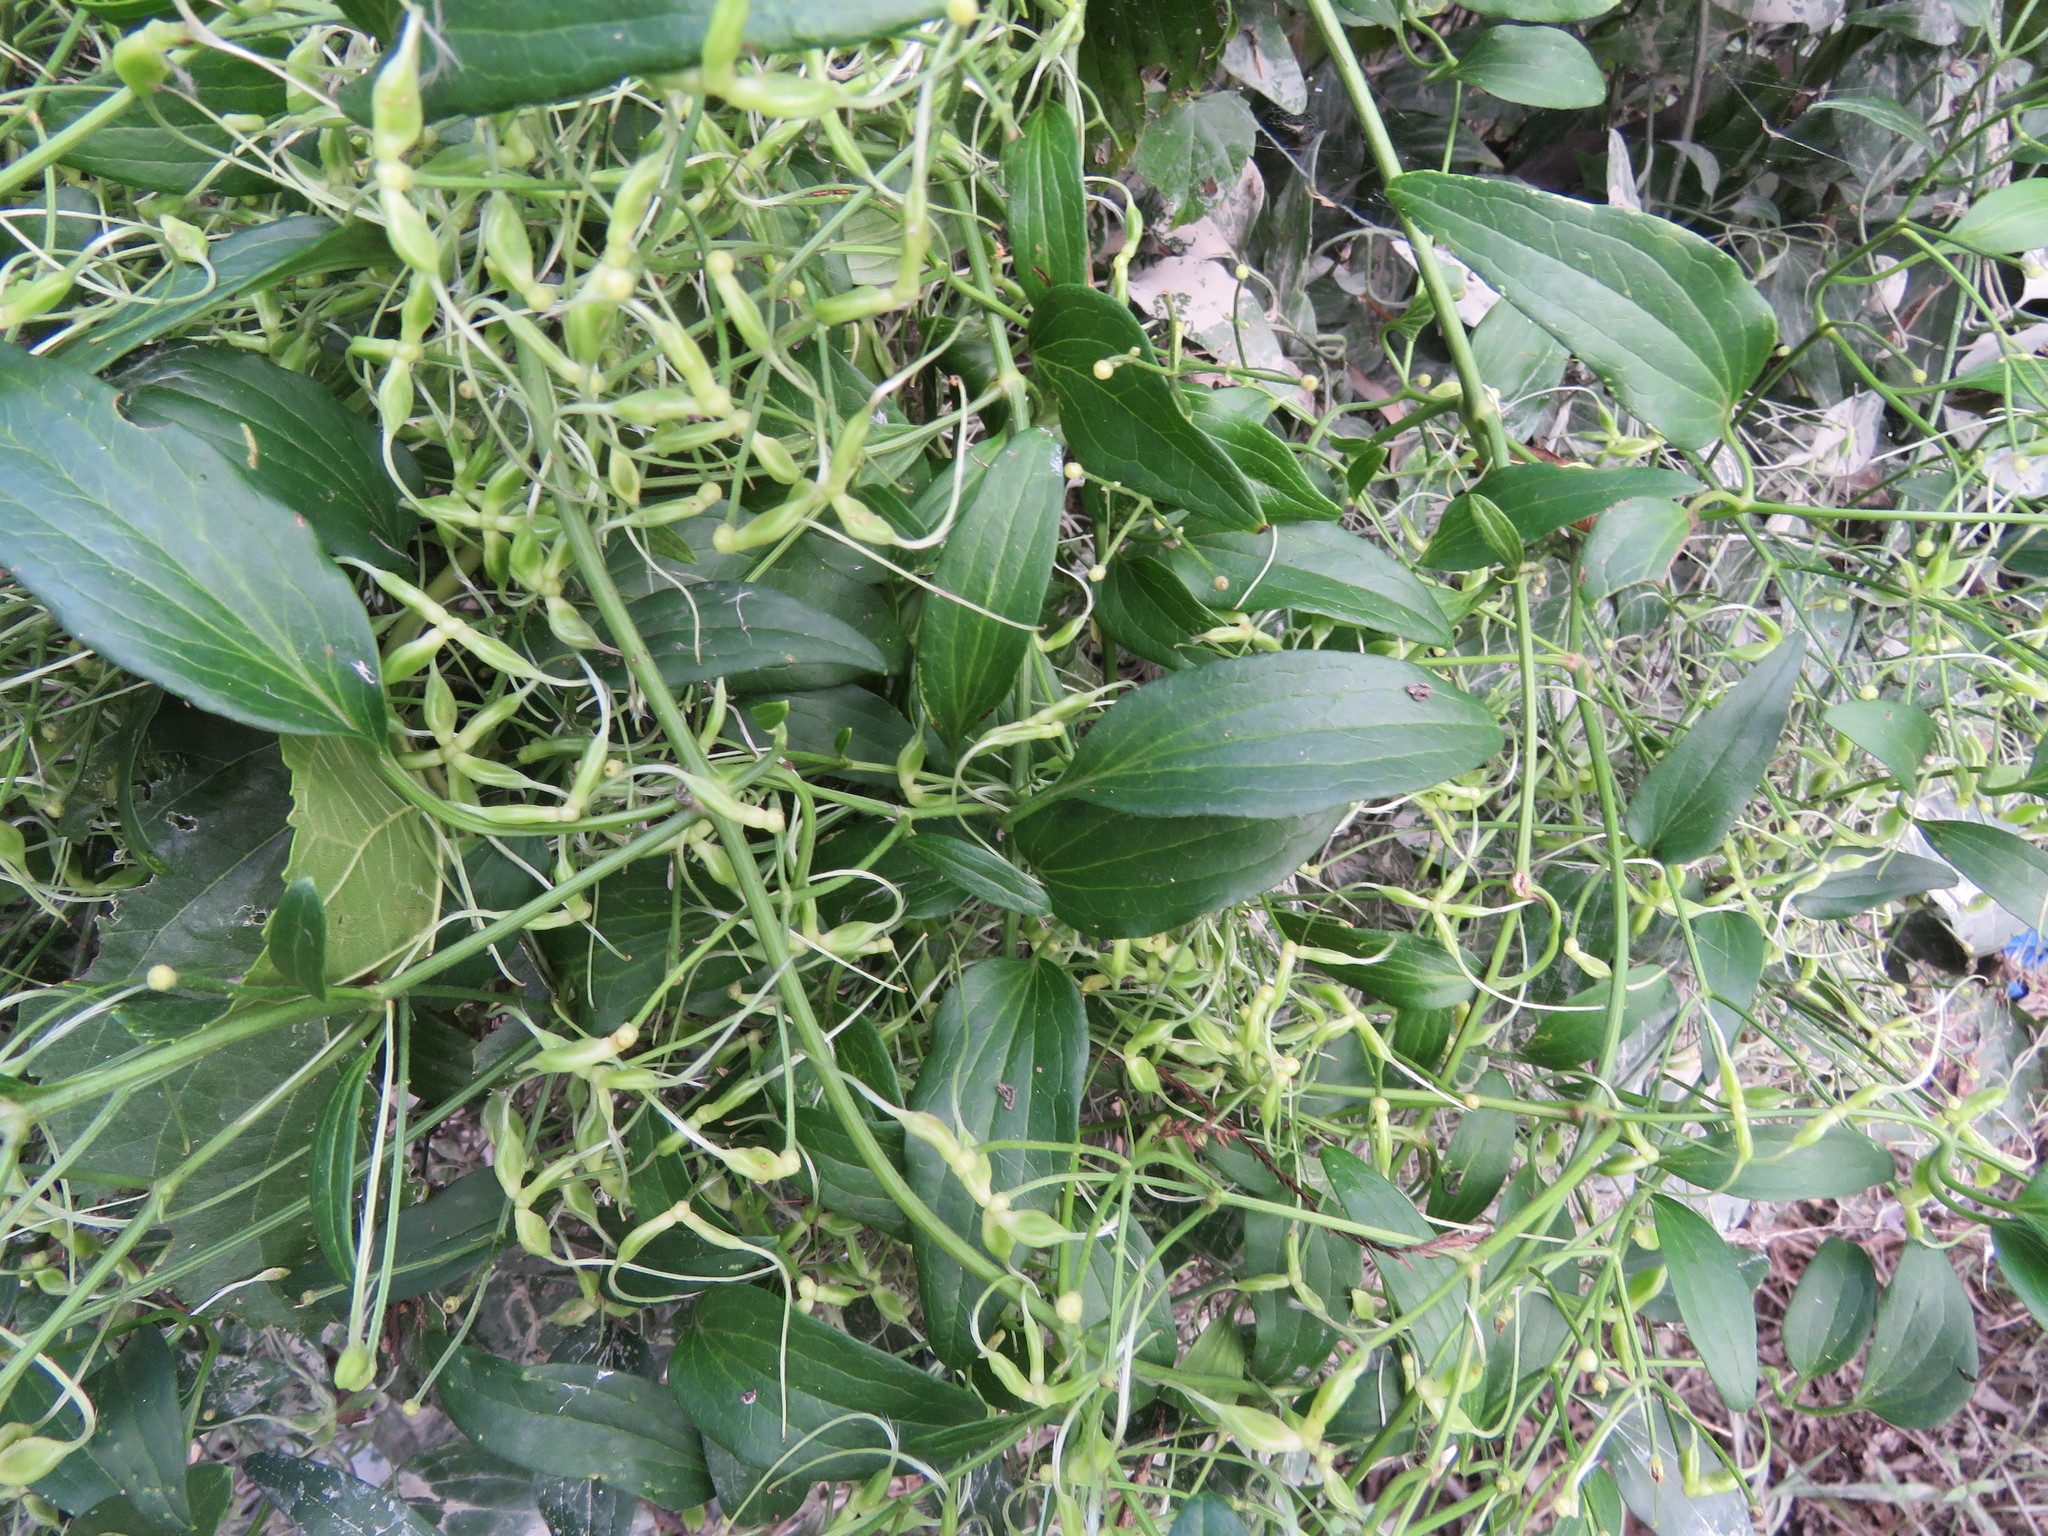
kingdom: Plantae
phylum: Tracheophyta
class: Magnoliopsida
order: Ranunculales
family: Ranunculaceae
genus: Clematis
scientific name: Clematis terniflora
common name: Sweet autumn clematis
